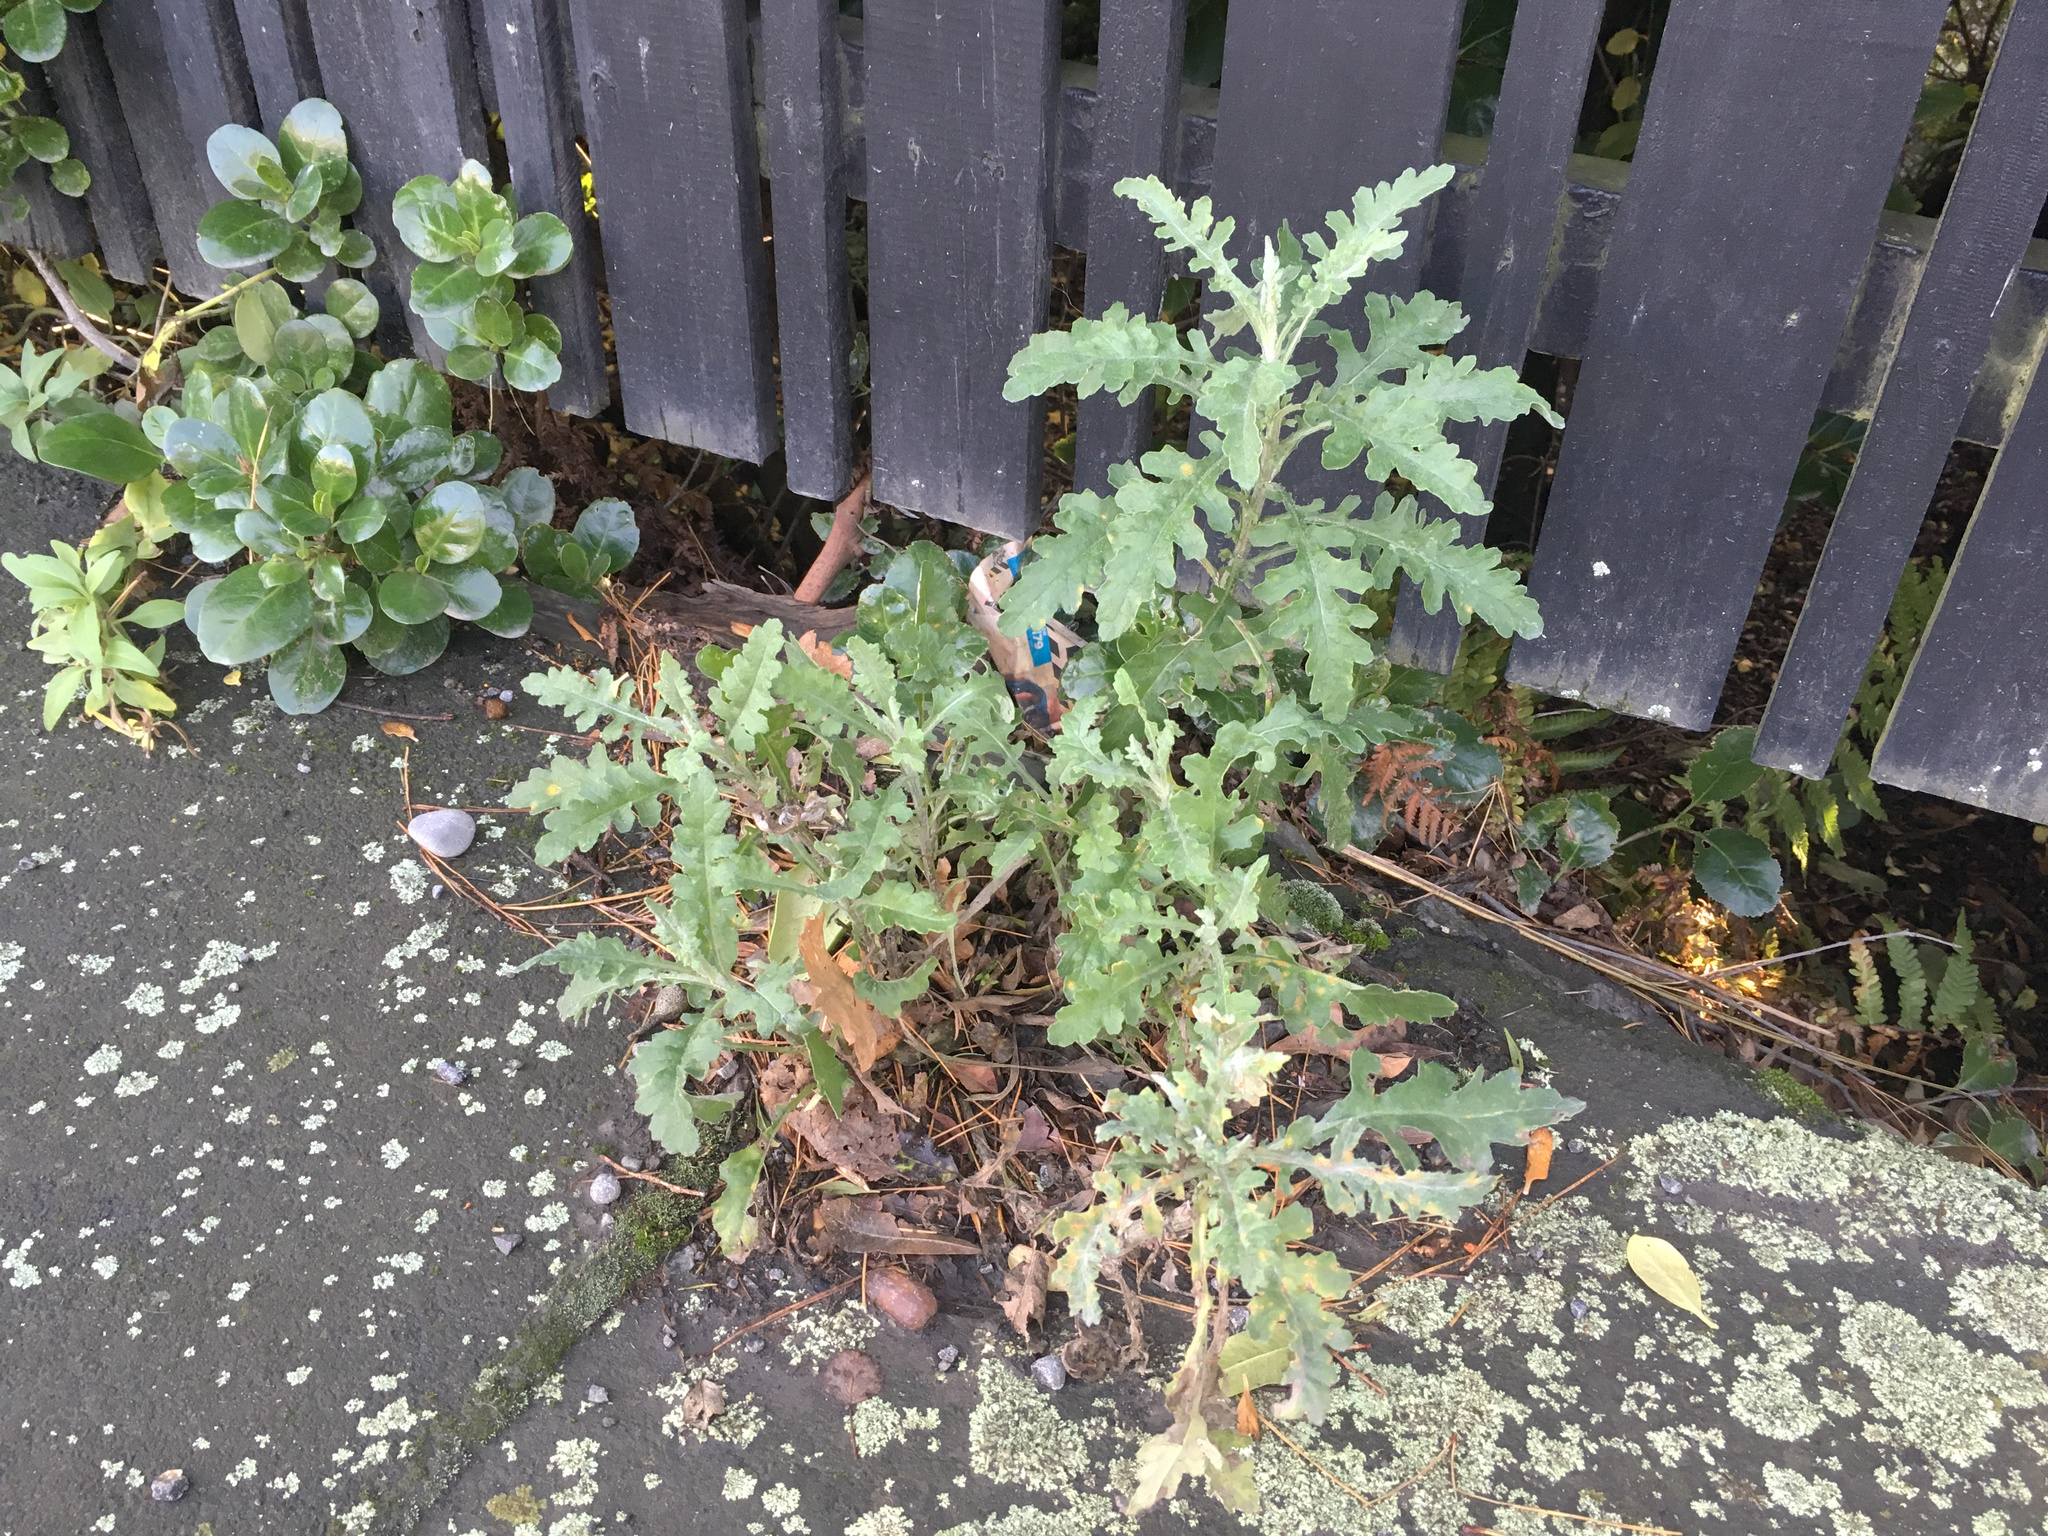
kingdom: Plantae
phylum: Tracheophyta
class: Magnoliopsida
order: Asterales
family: Asteraceae
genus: Senecio
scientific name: Senecio glomeratus
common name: Cutleaf burnweed
